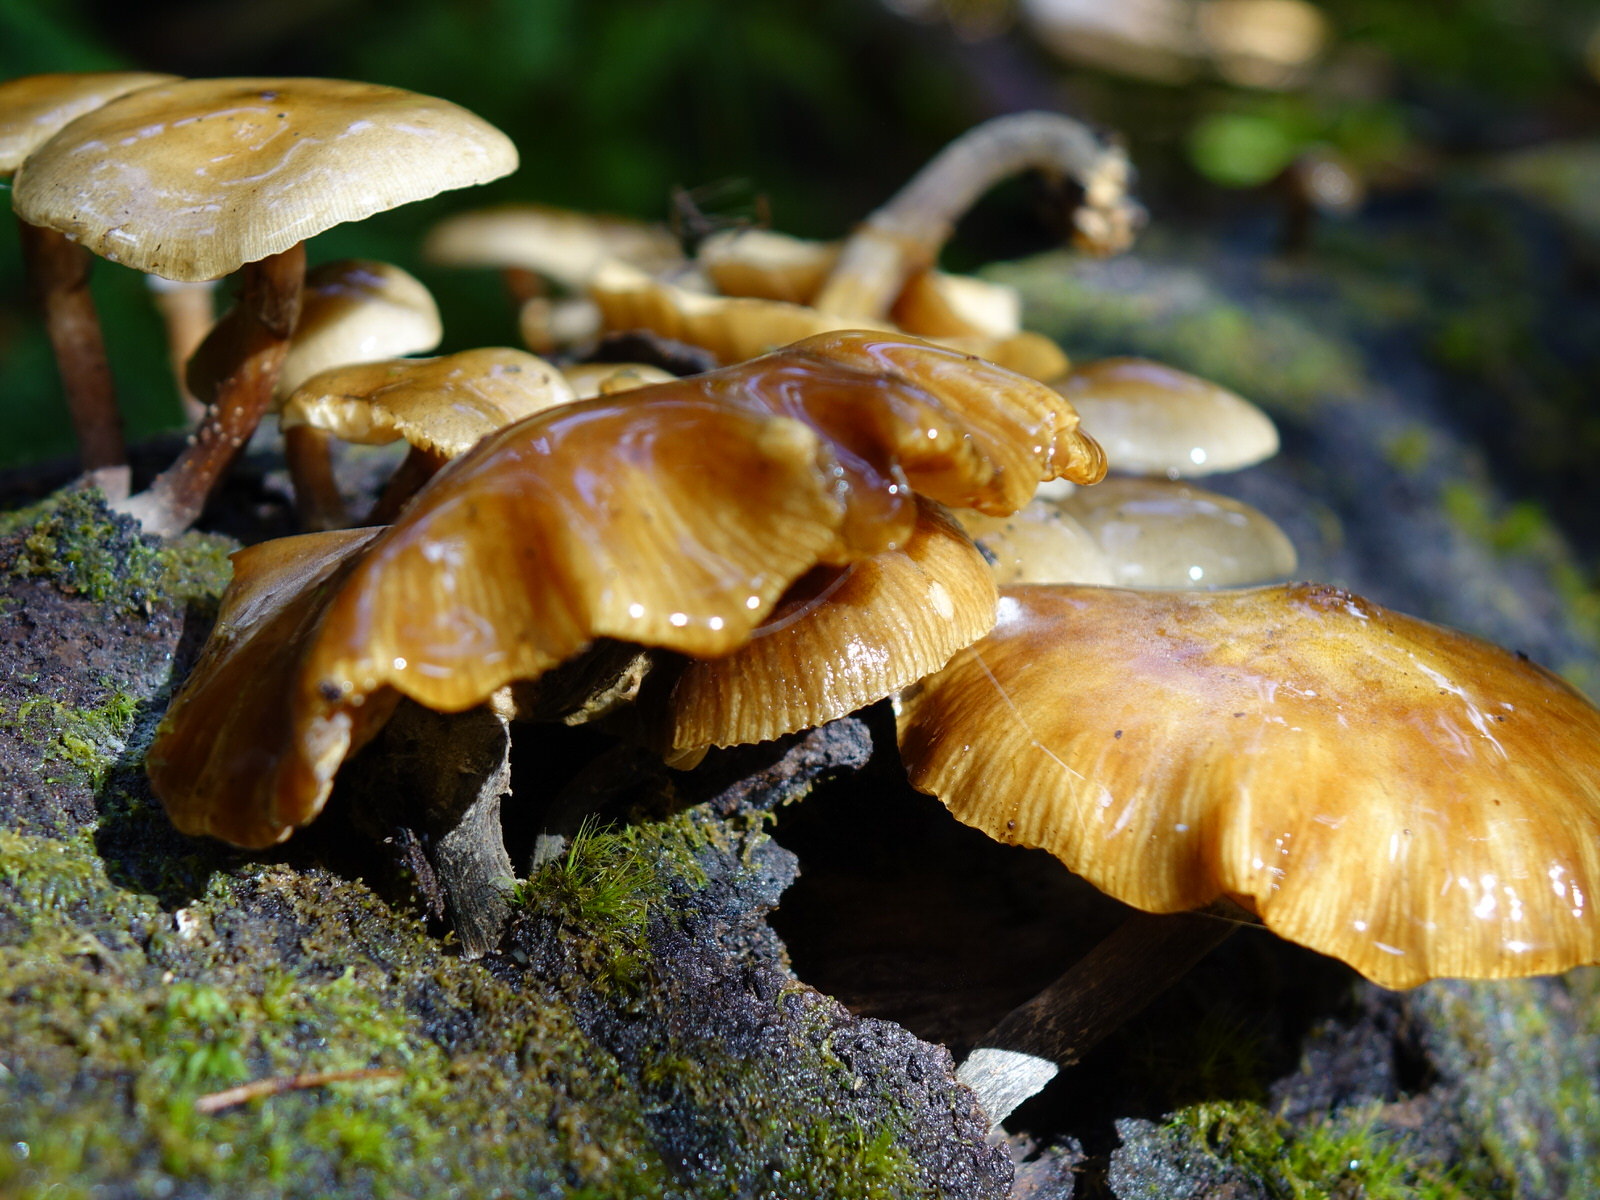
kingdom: Fungi
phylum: Basidiomycota
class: Agaricomycetes
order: Agaricales
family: Physalacriaceae
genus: Armillaria
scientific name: Armillaria novae-zelandiae
